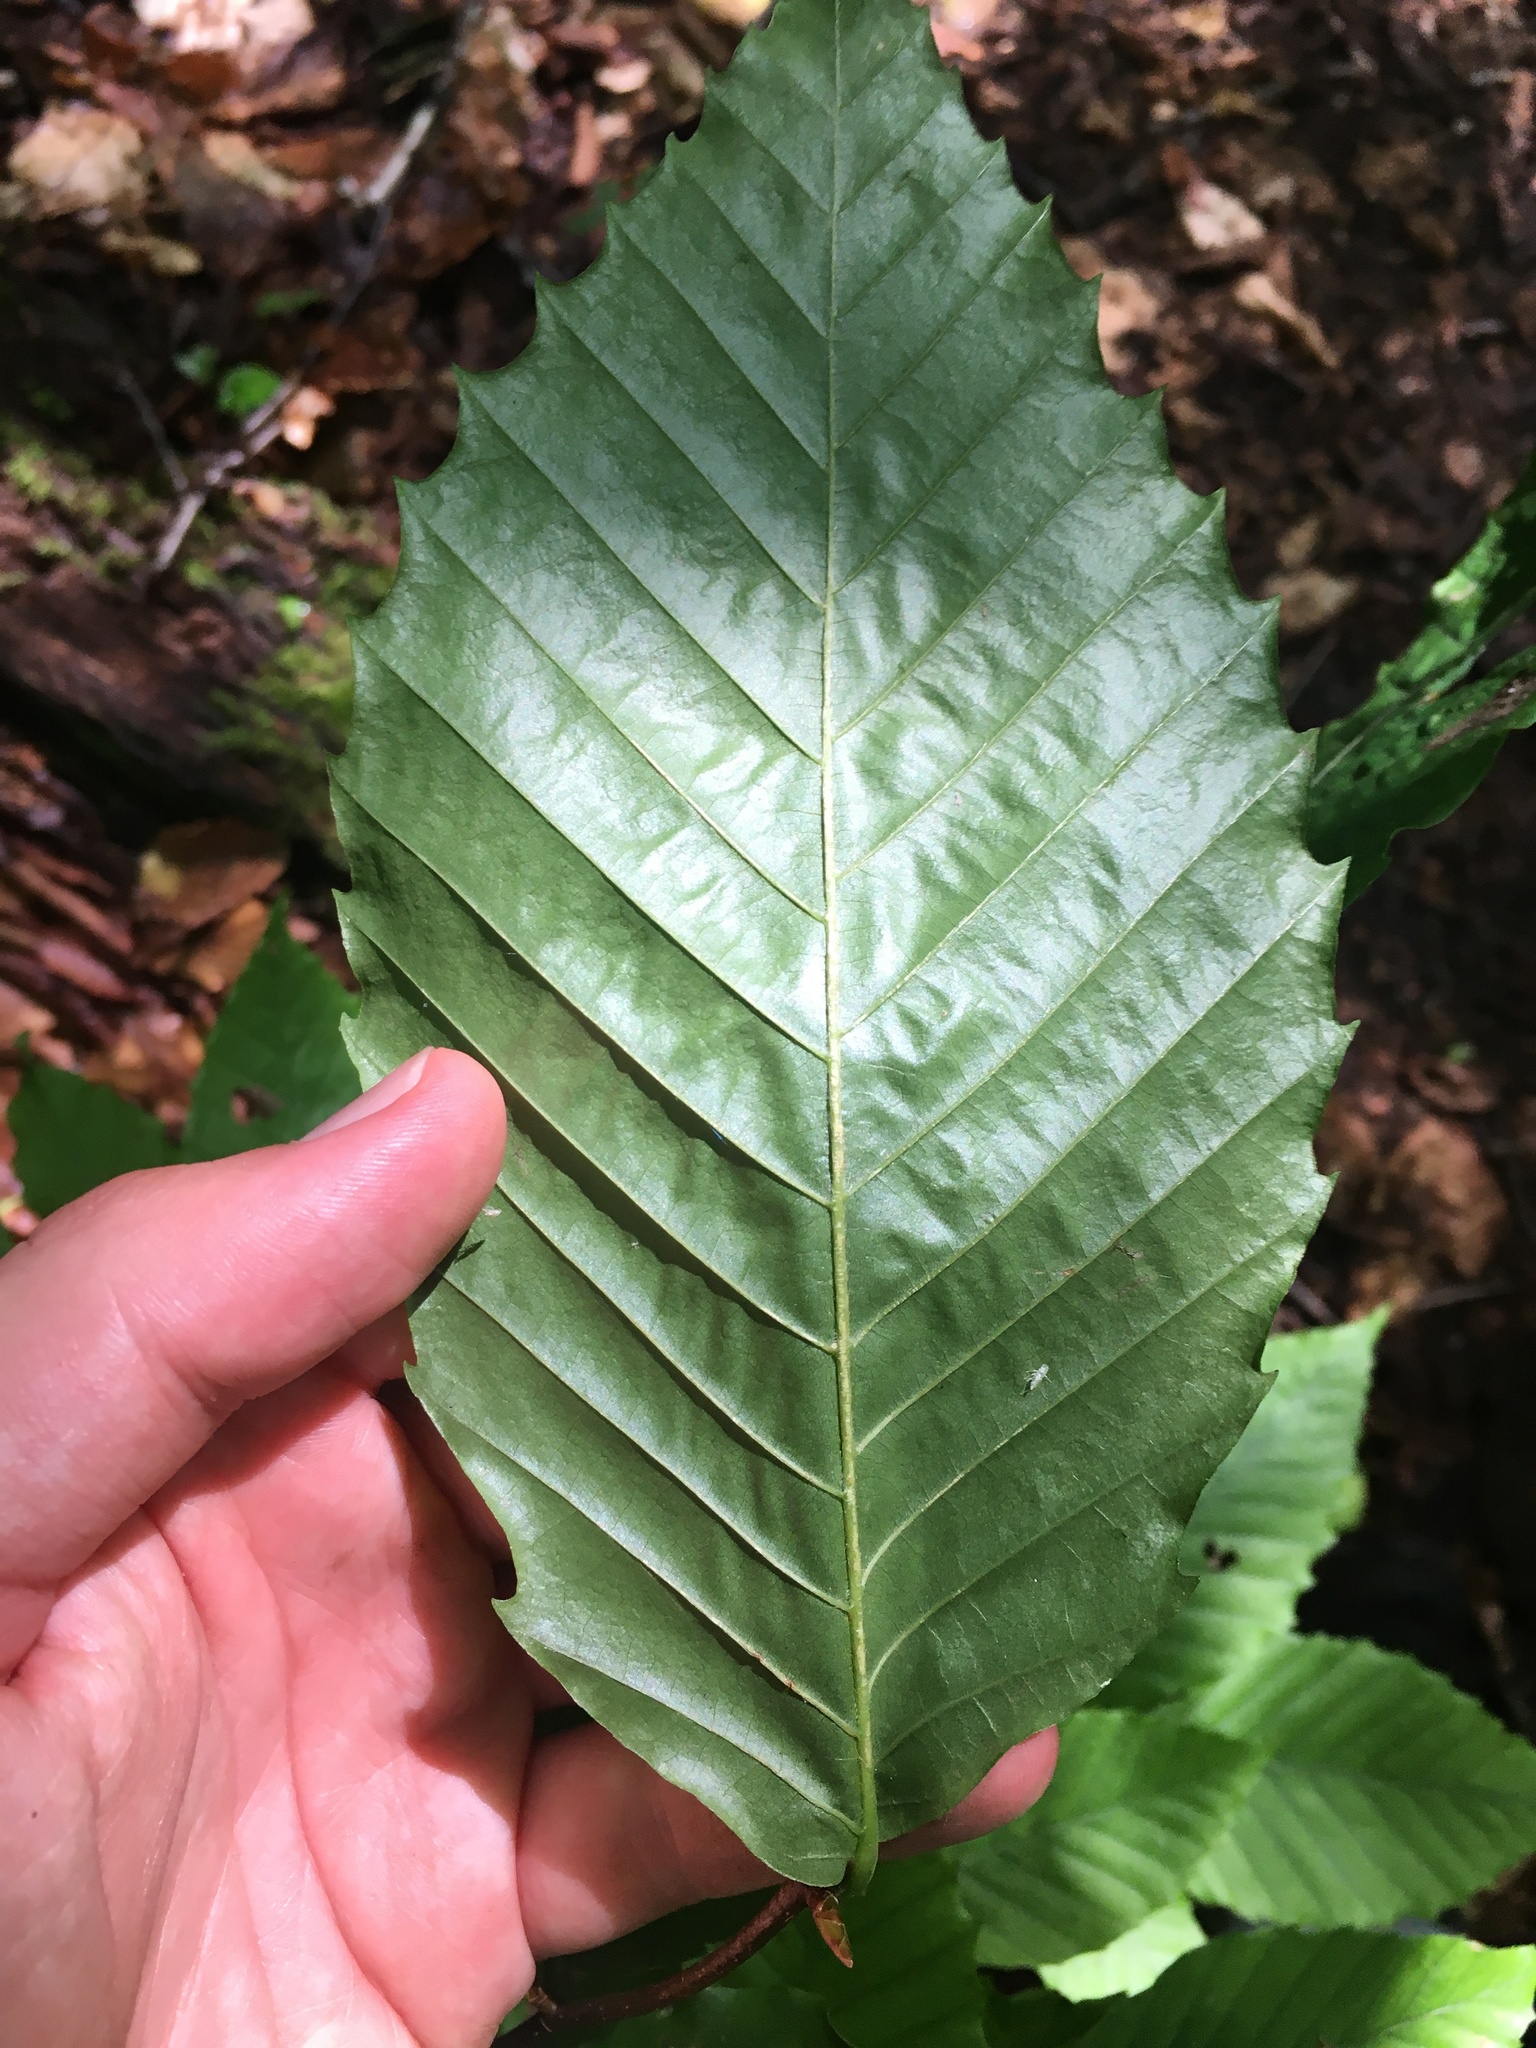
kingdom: Plantae
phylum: Tracheophyta
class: Magnoliopsida
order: Fagales
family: Fagaceae
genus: Fagus
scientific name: Fagus grandifolia
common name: American beech
